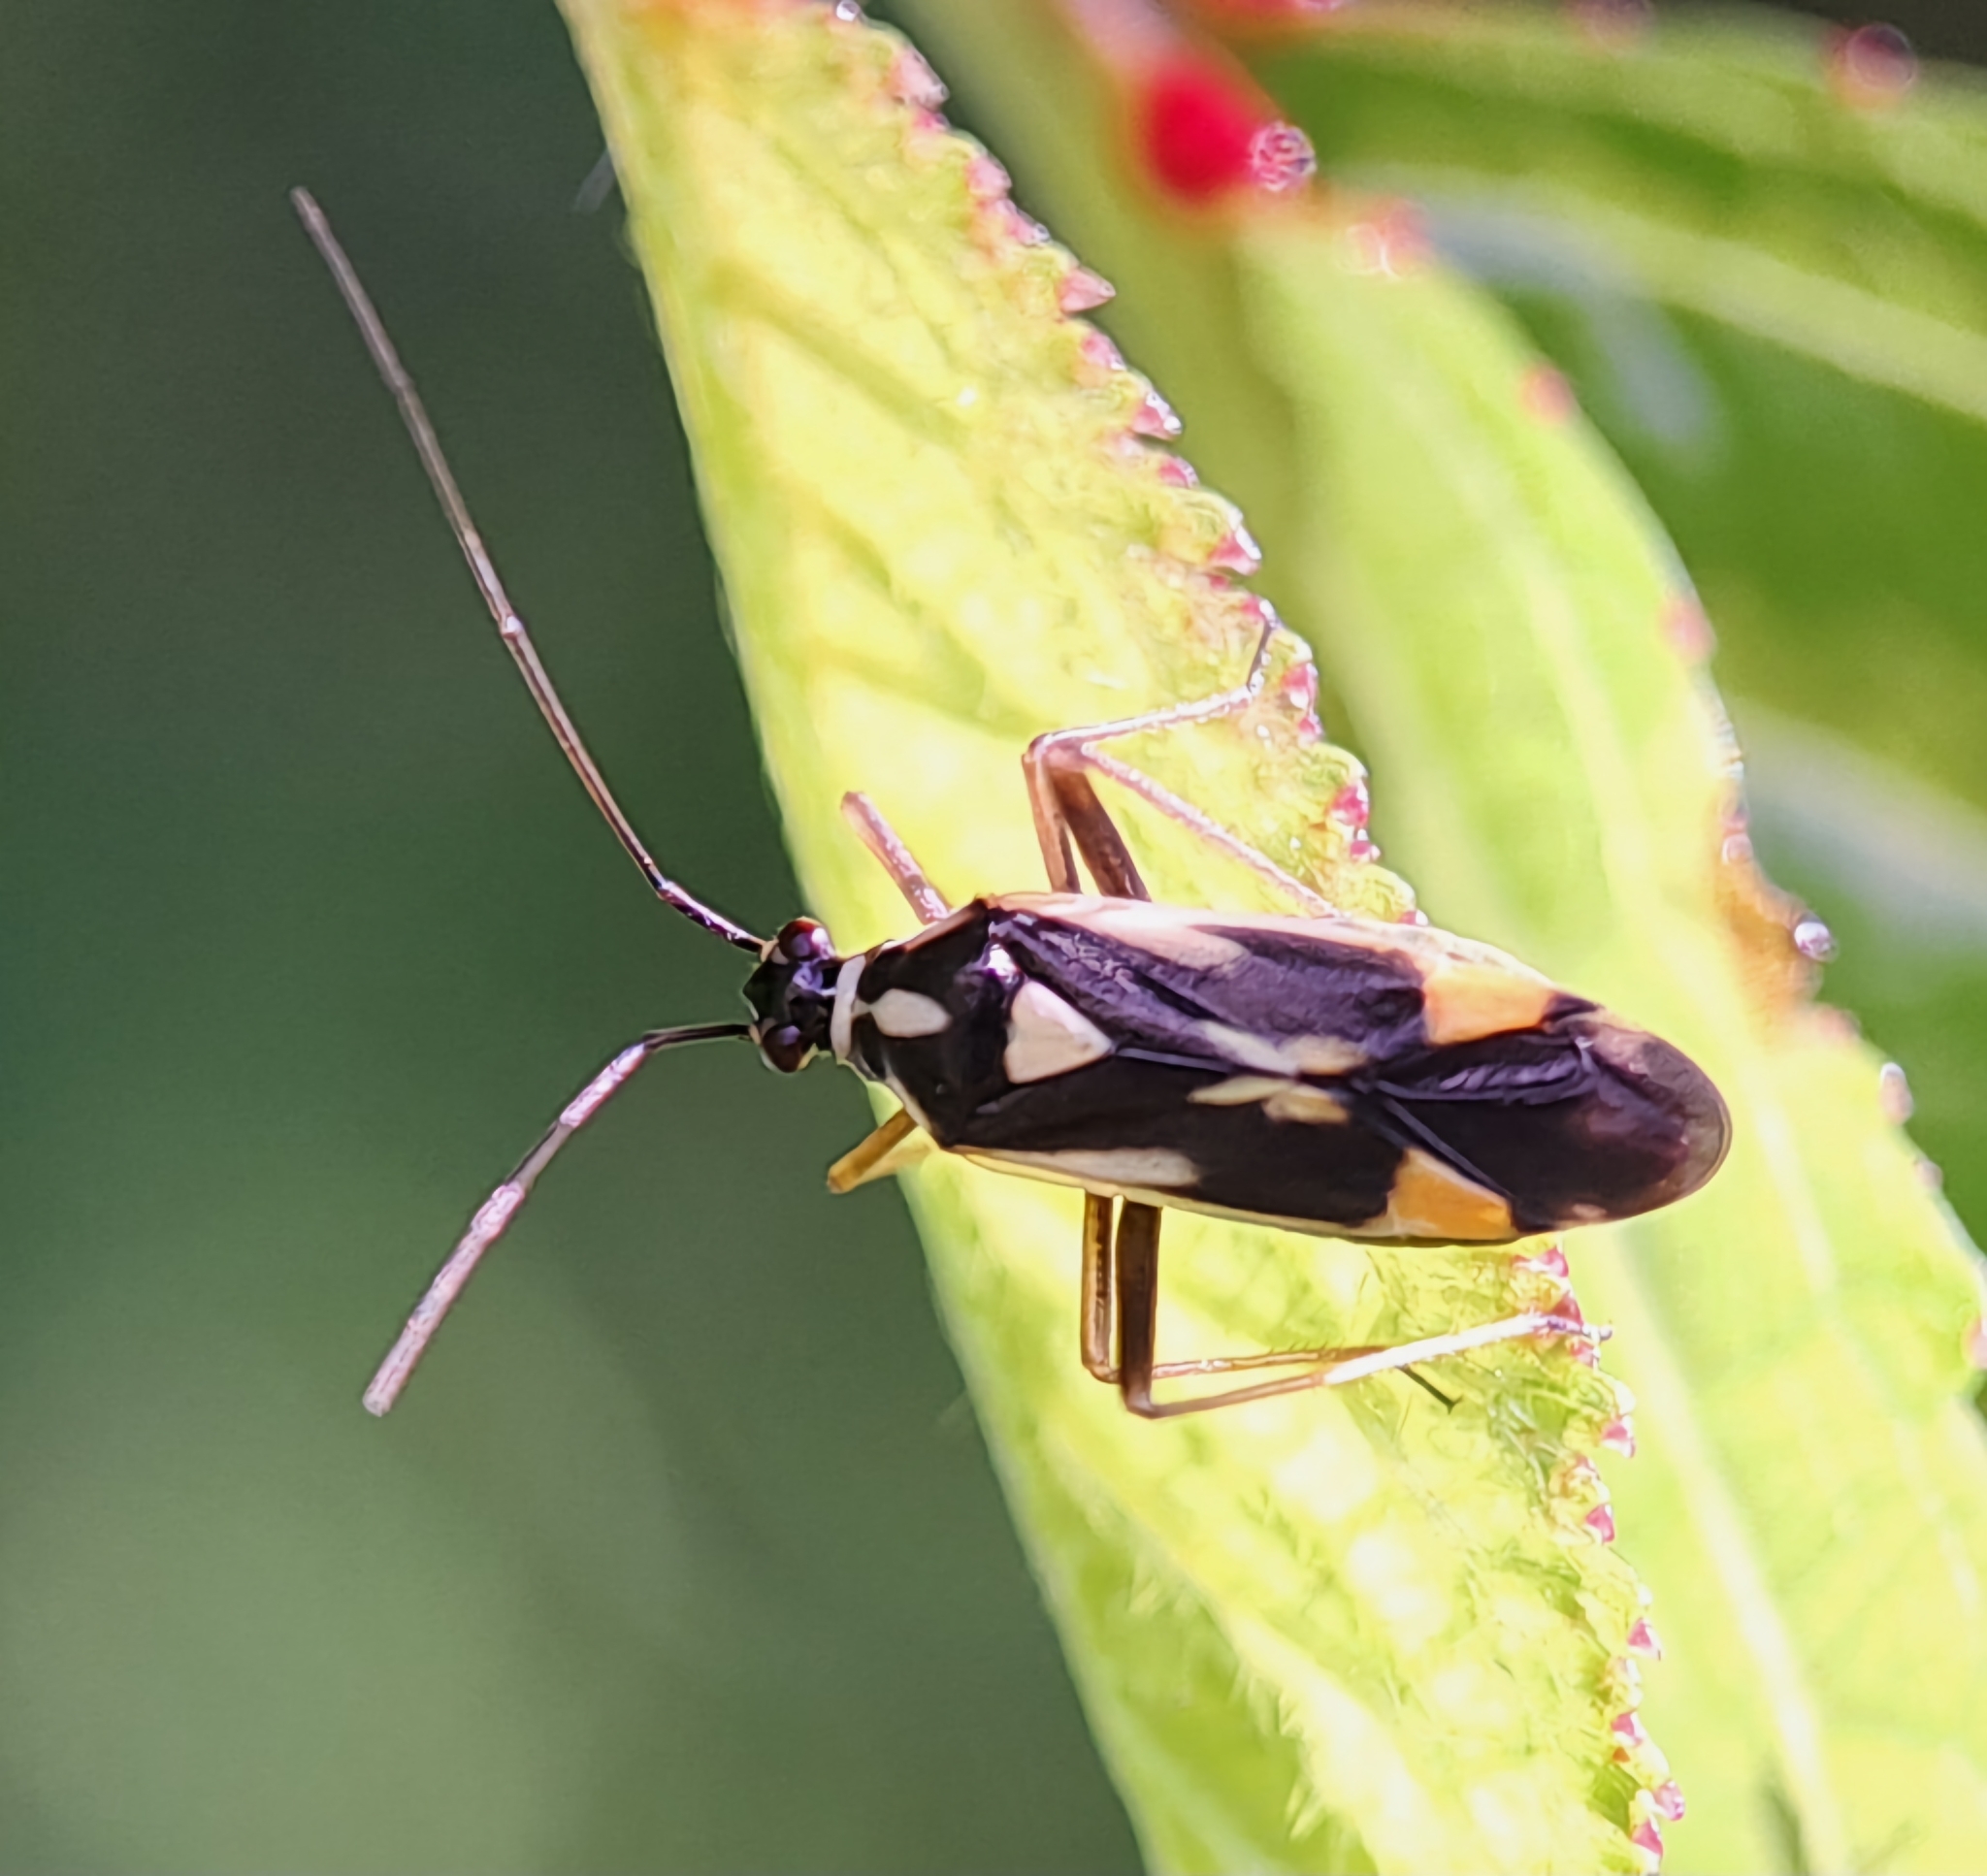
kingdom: Animalia
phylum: Arthropoda
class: Insecta
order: Hemiptera
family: Miridae
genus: Grypocoris
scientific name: Grypocoris stysi
